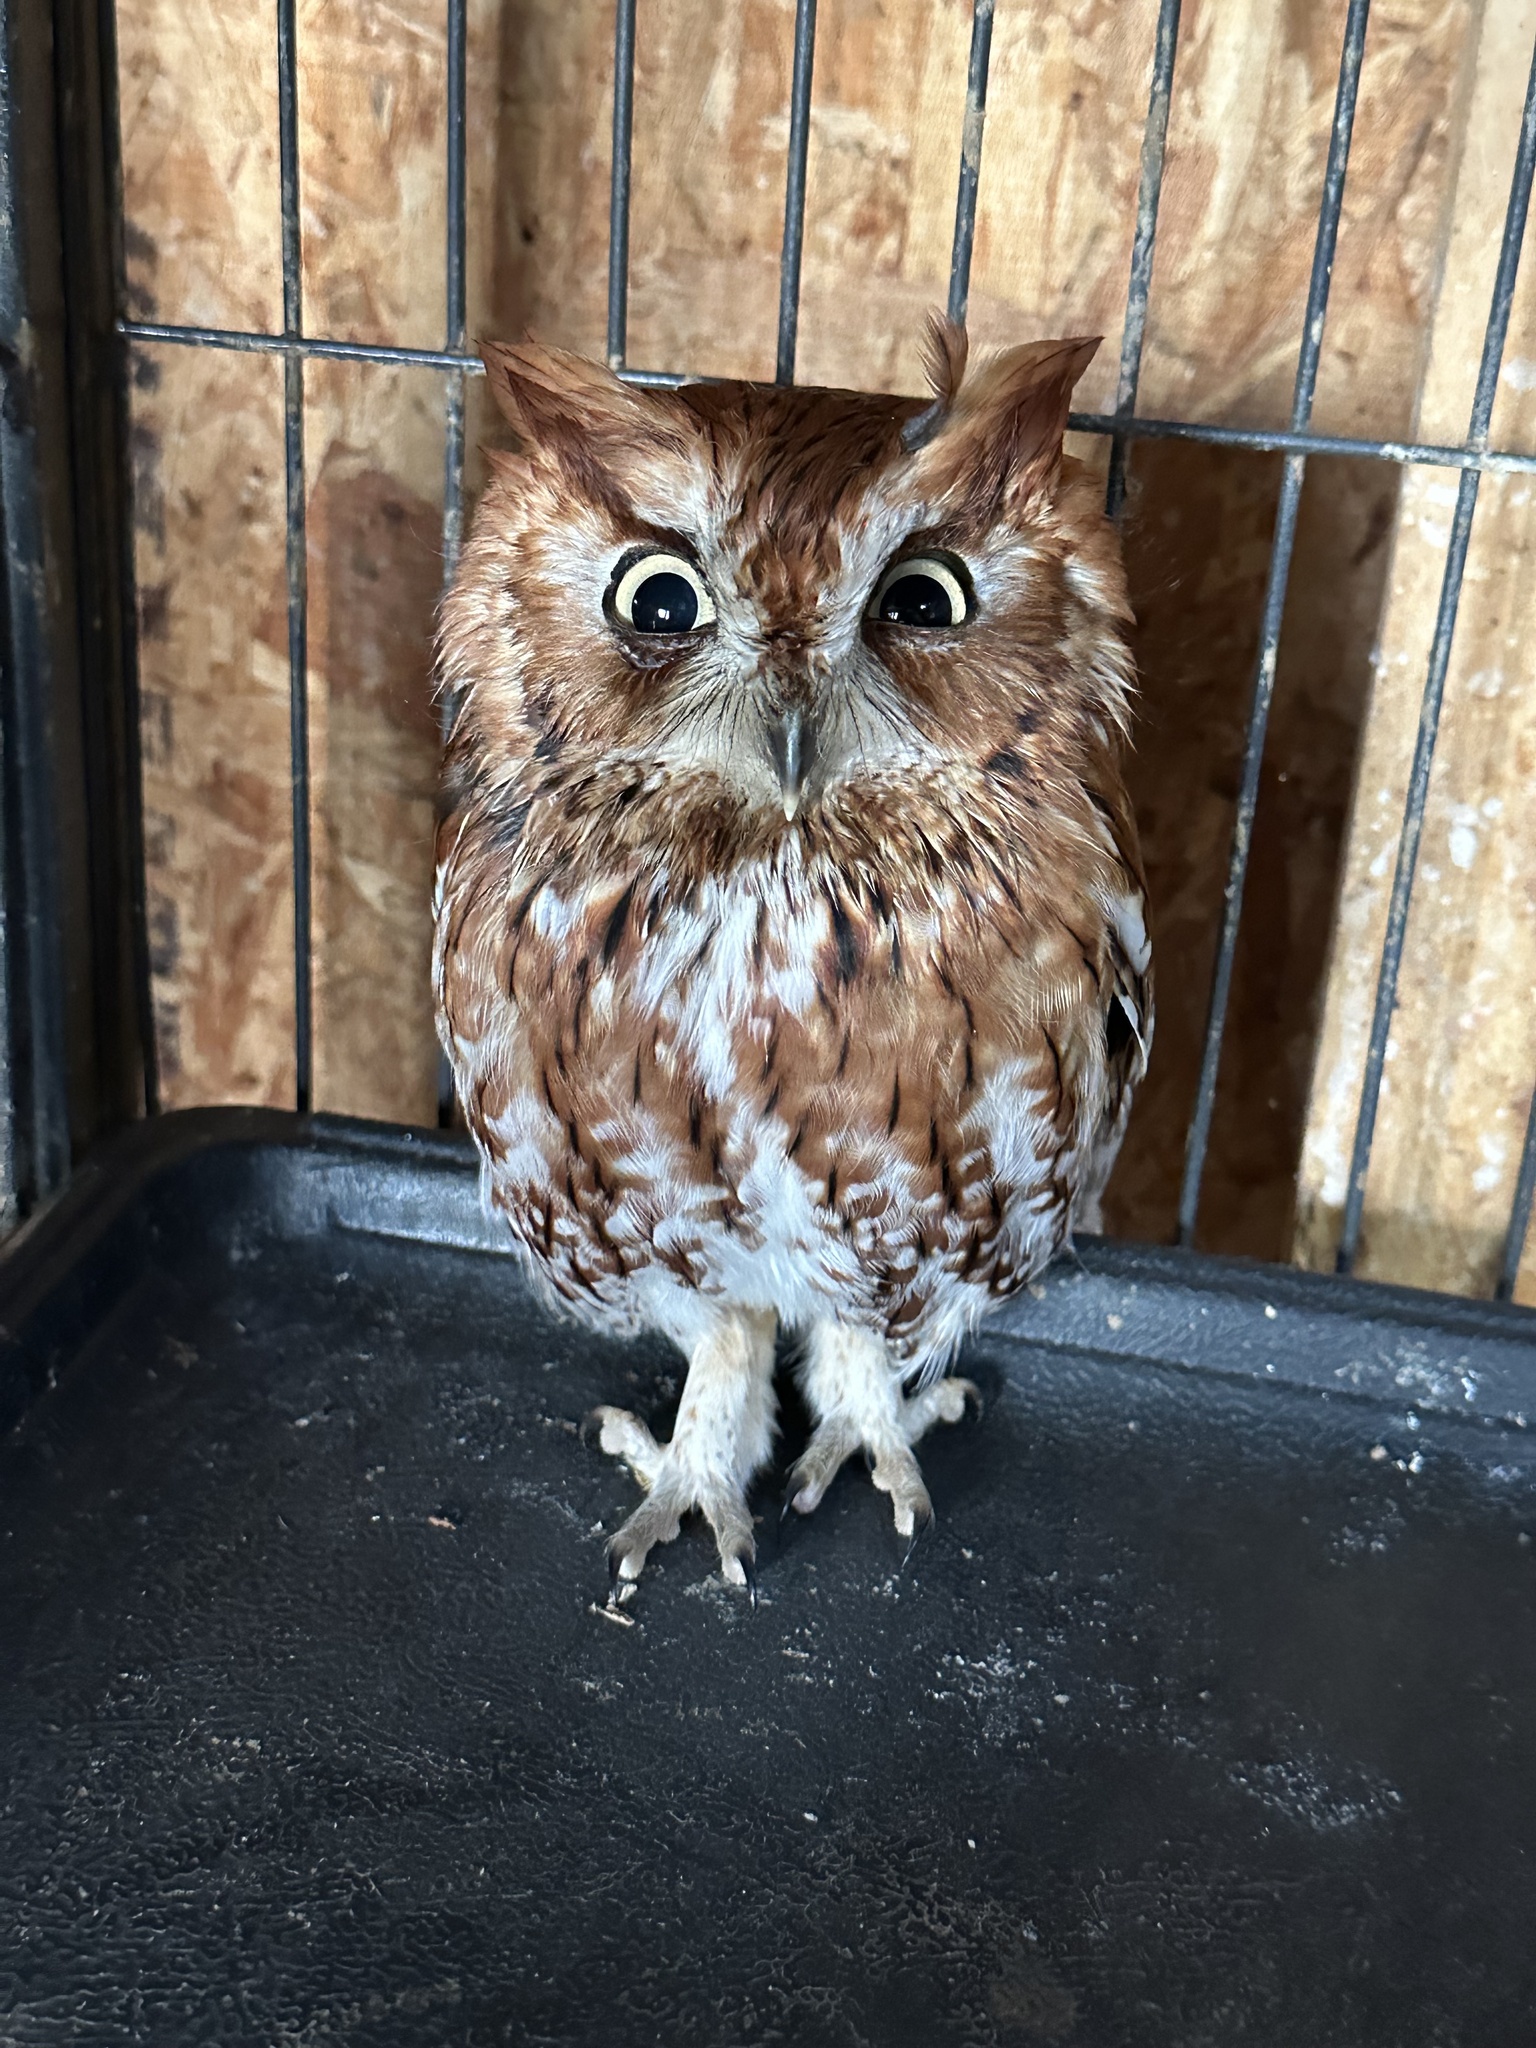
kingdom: Animalia
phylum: Chordata
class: Aves
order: Strigiformes
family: Strigidae
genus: Megascops
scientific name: Megascops asio
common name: Eastern screech-owl
